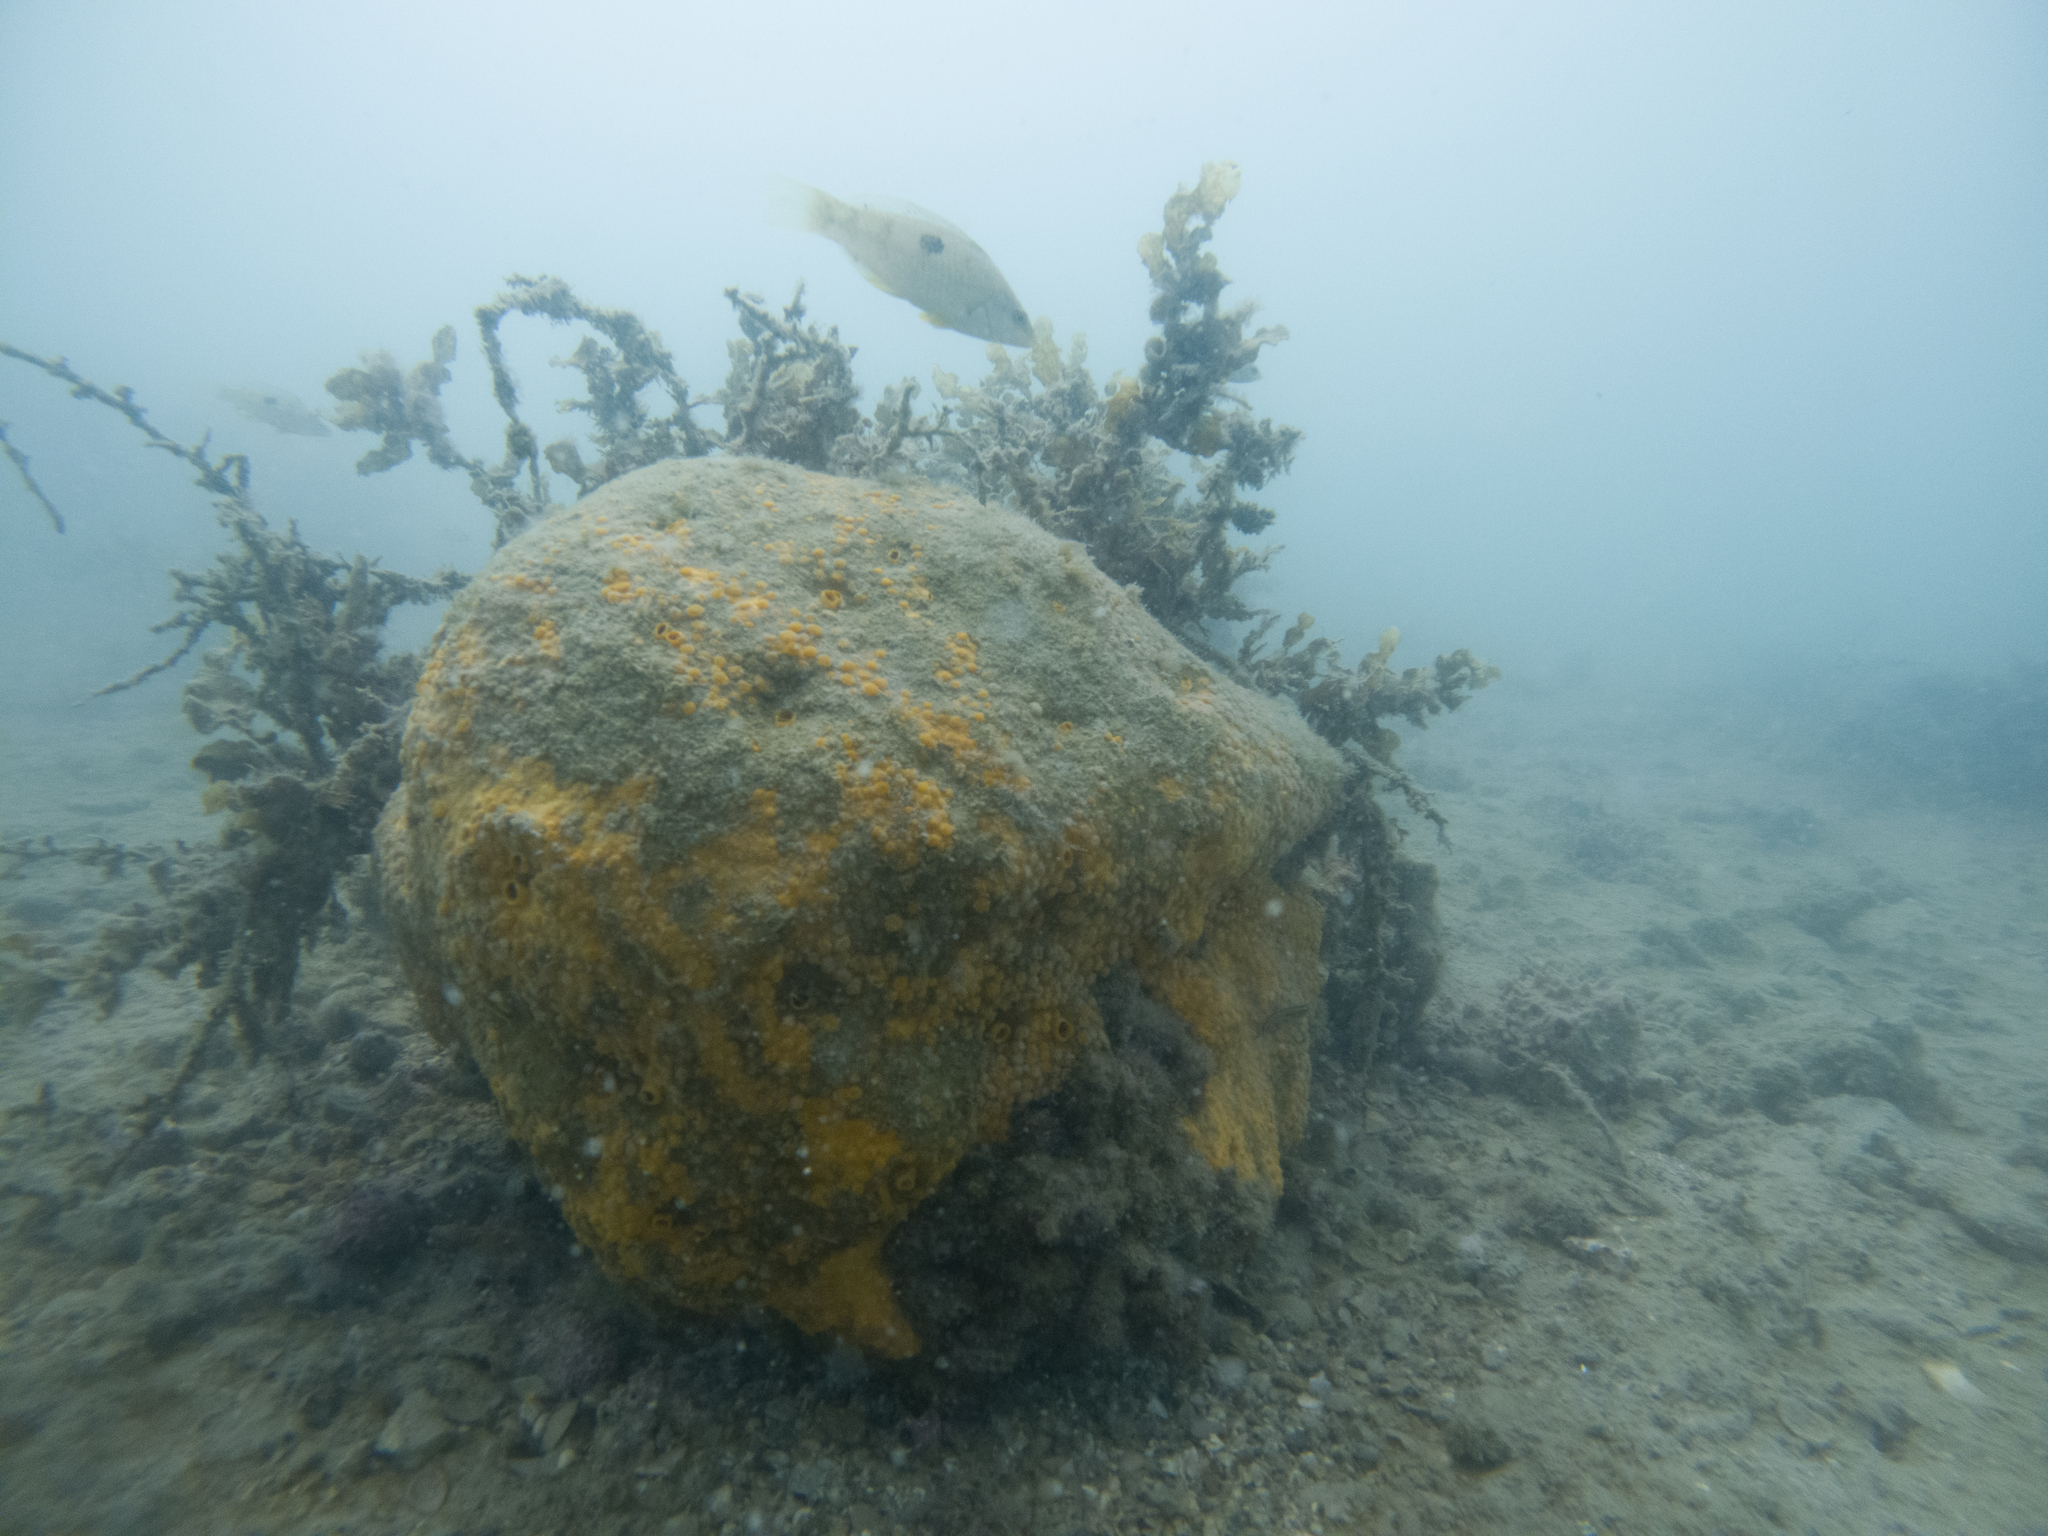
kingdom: Animalia
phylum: Porifera
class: Demospongiae
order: Clionaida
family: Clionaidae
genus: Cliona
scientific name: Cliona celata
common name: Boring sponge
